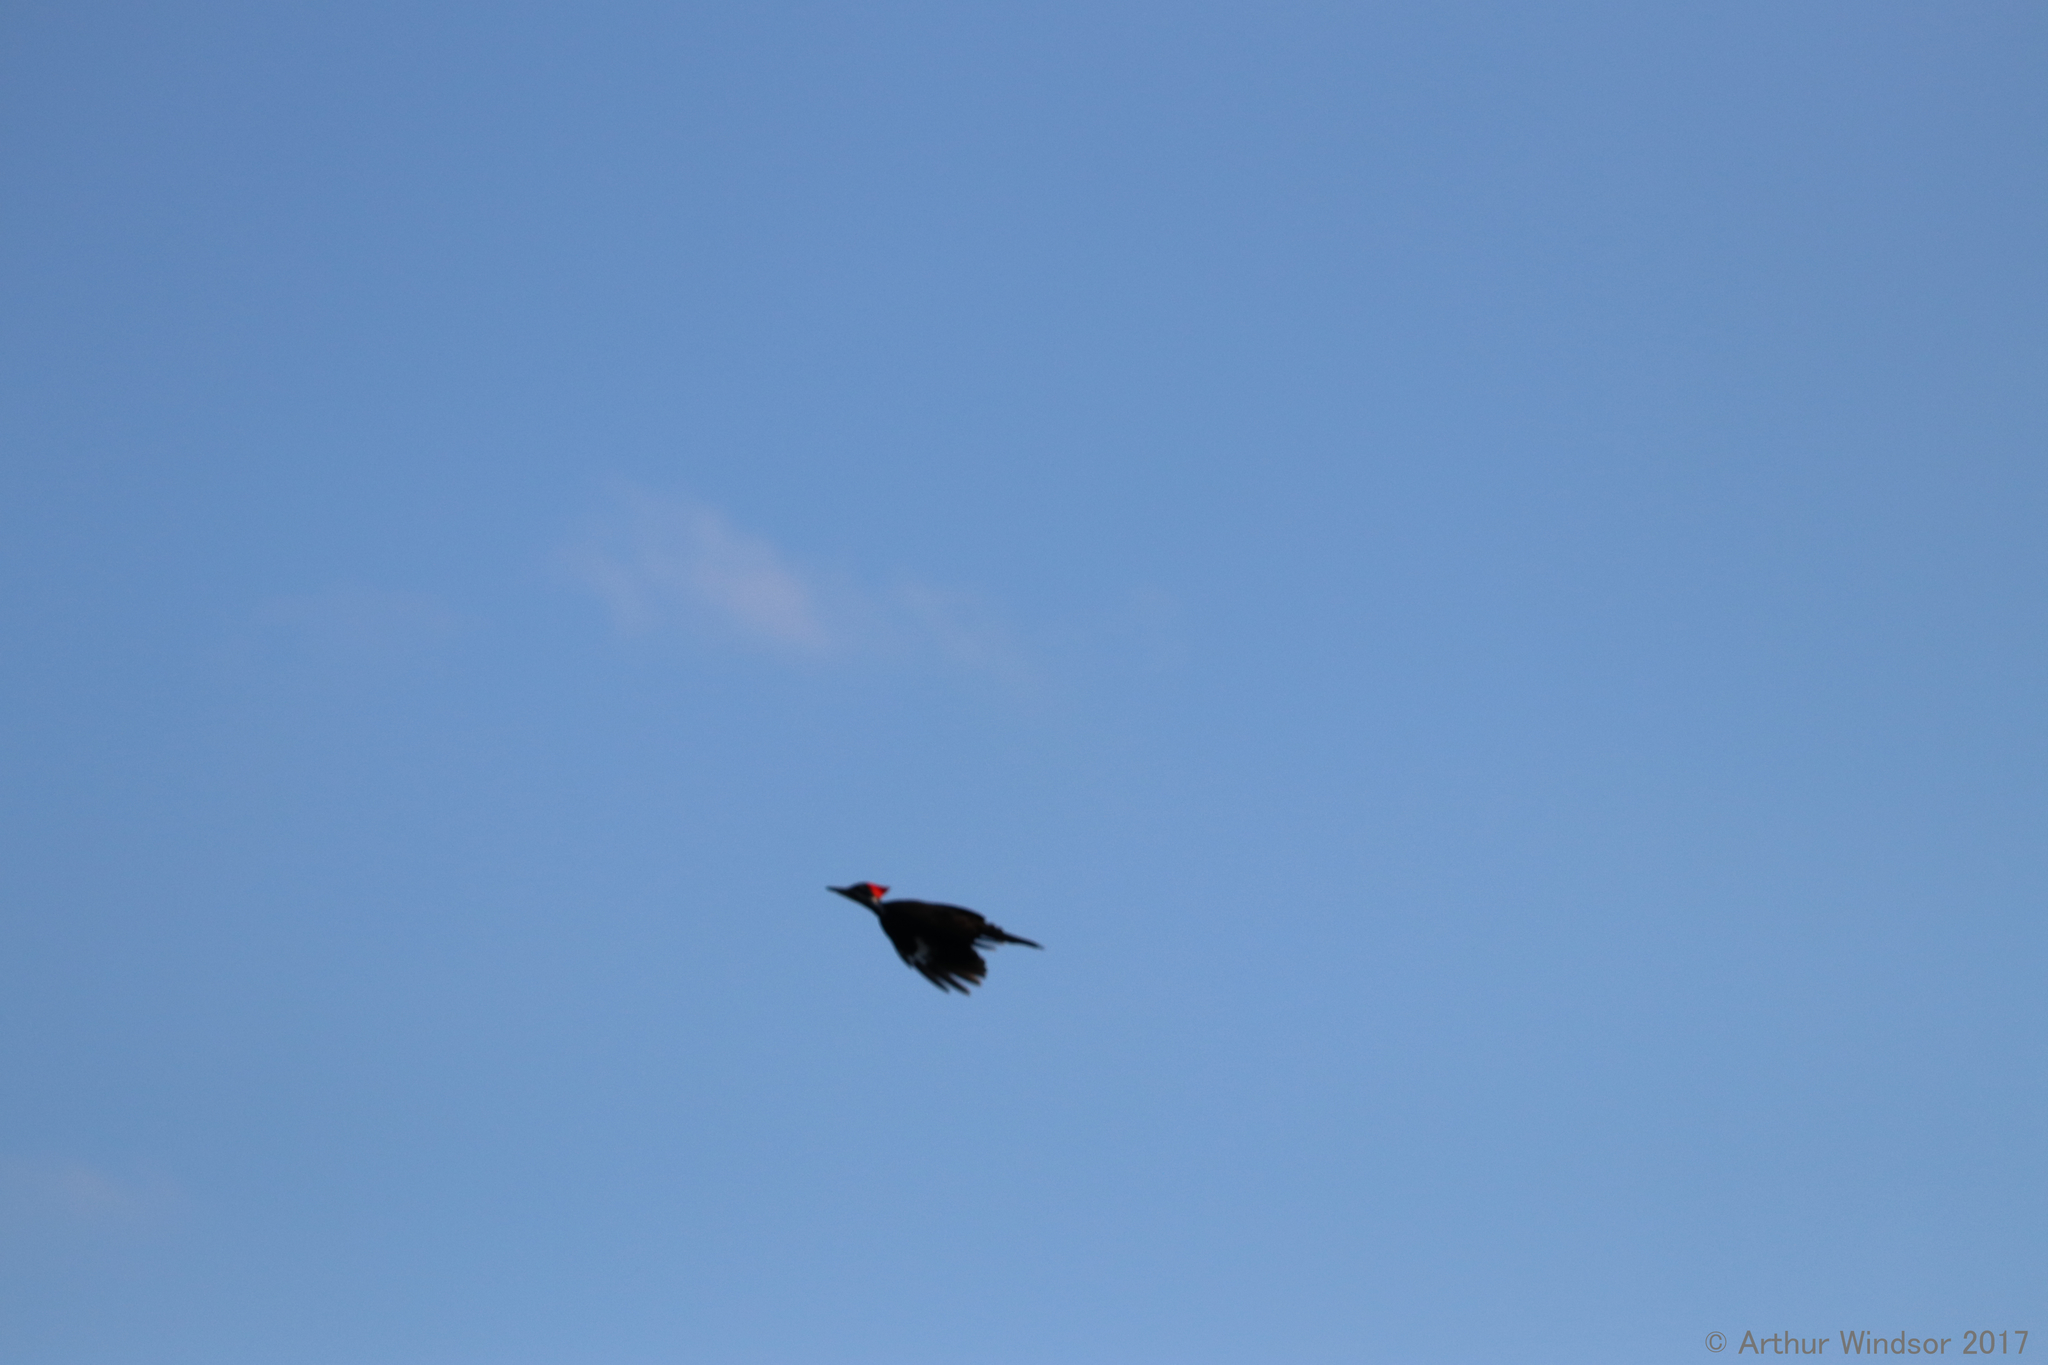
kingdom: Animalia
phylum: Chordata
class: Aves
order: Piciformes
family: Picidae
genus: Dryocopus
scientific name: Dryocopus pileatus
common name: Pileated woodpecker
